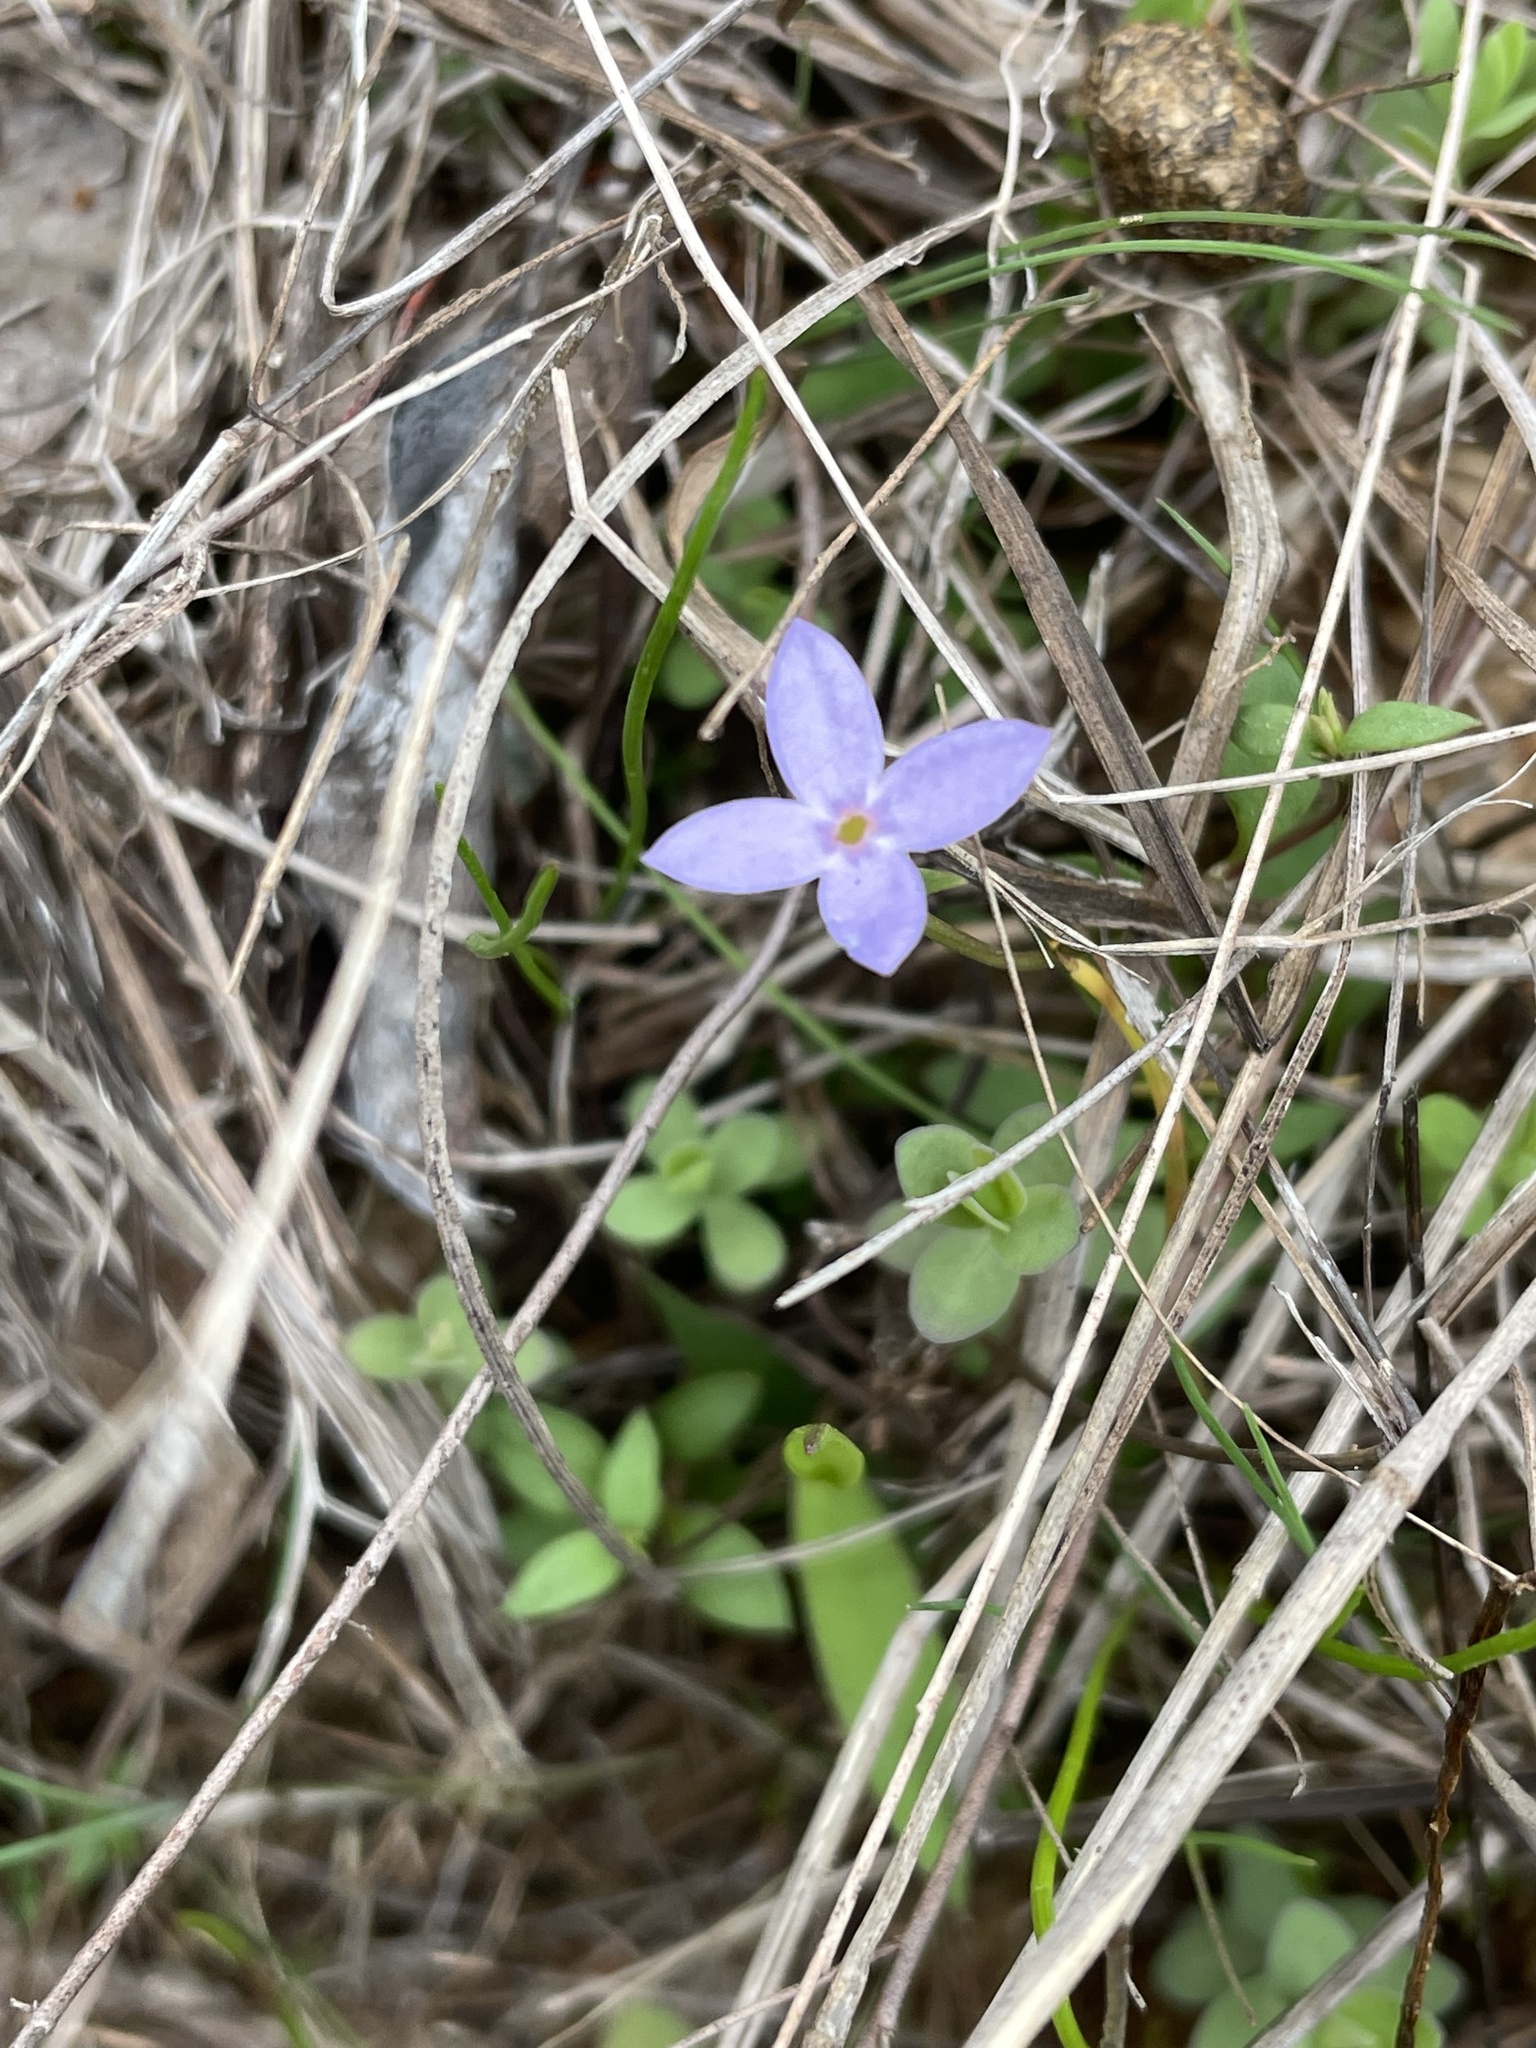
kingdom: Plantae
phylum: Tracheophyta
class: Magnoliopsida
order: Gentianales
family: Rubiaceae
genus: Houstonia
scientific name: Houstonia pusilla
